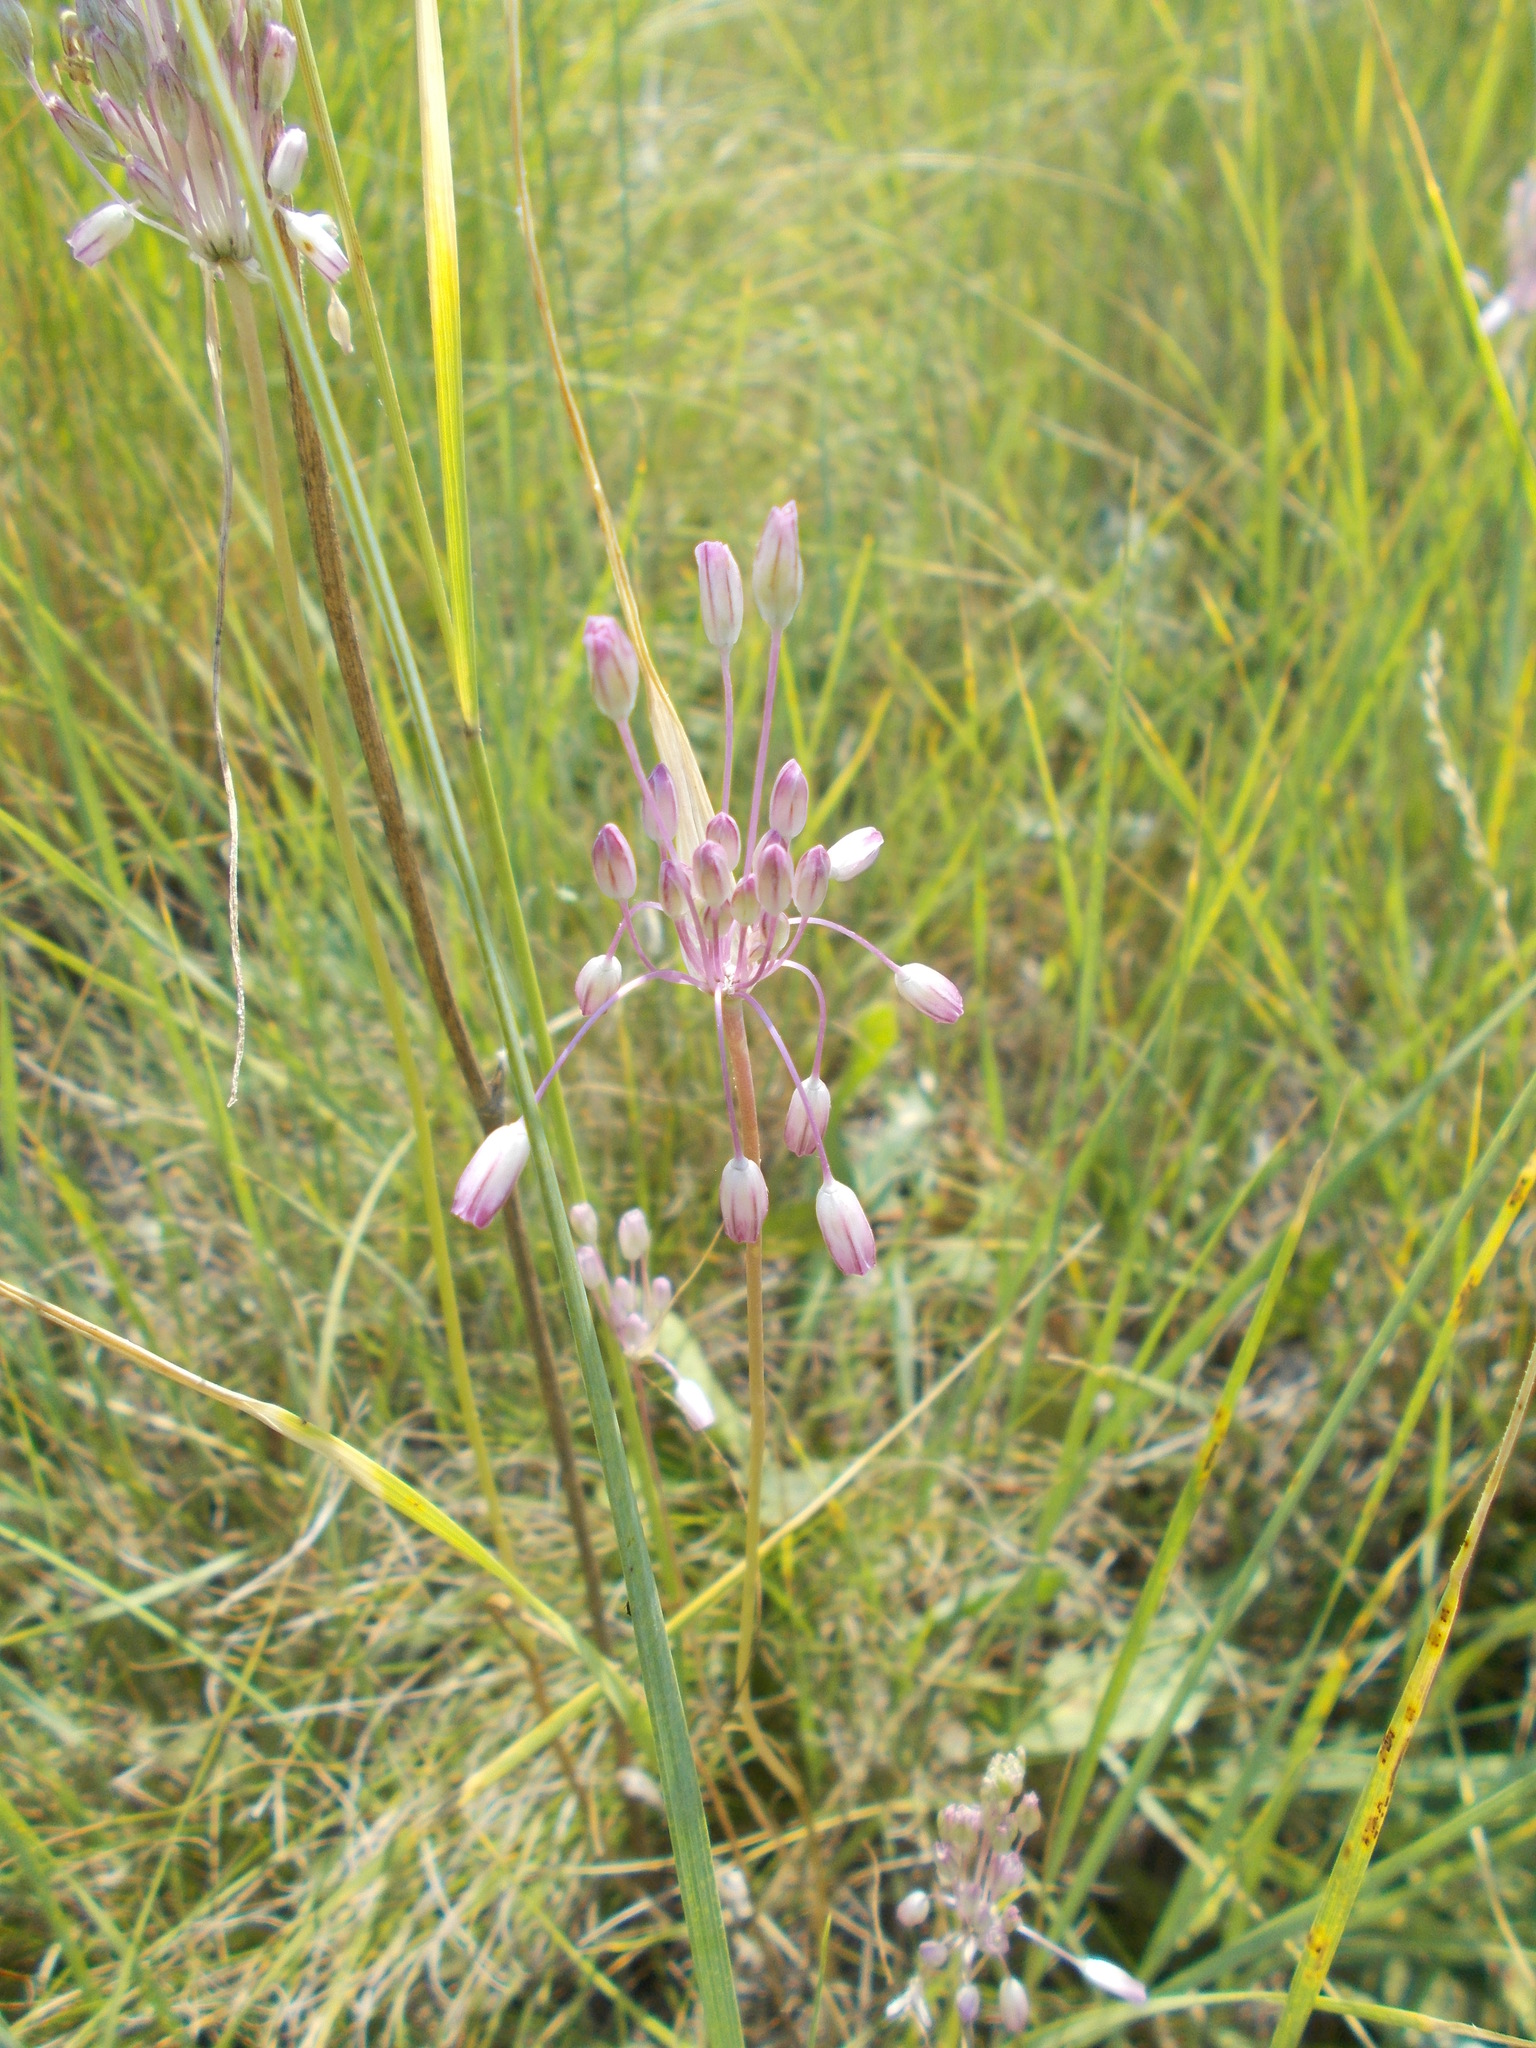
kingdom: Plantae
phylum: Tracheophyta
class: Liliopsida
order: Asparagales
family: Amaryllidaceae
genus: Allium
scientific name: Allium praescissum
